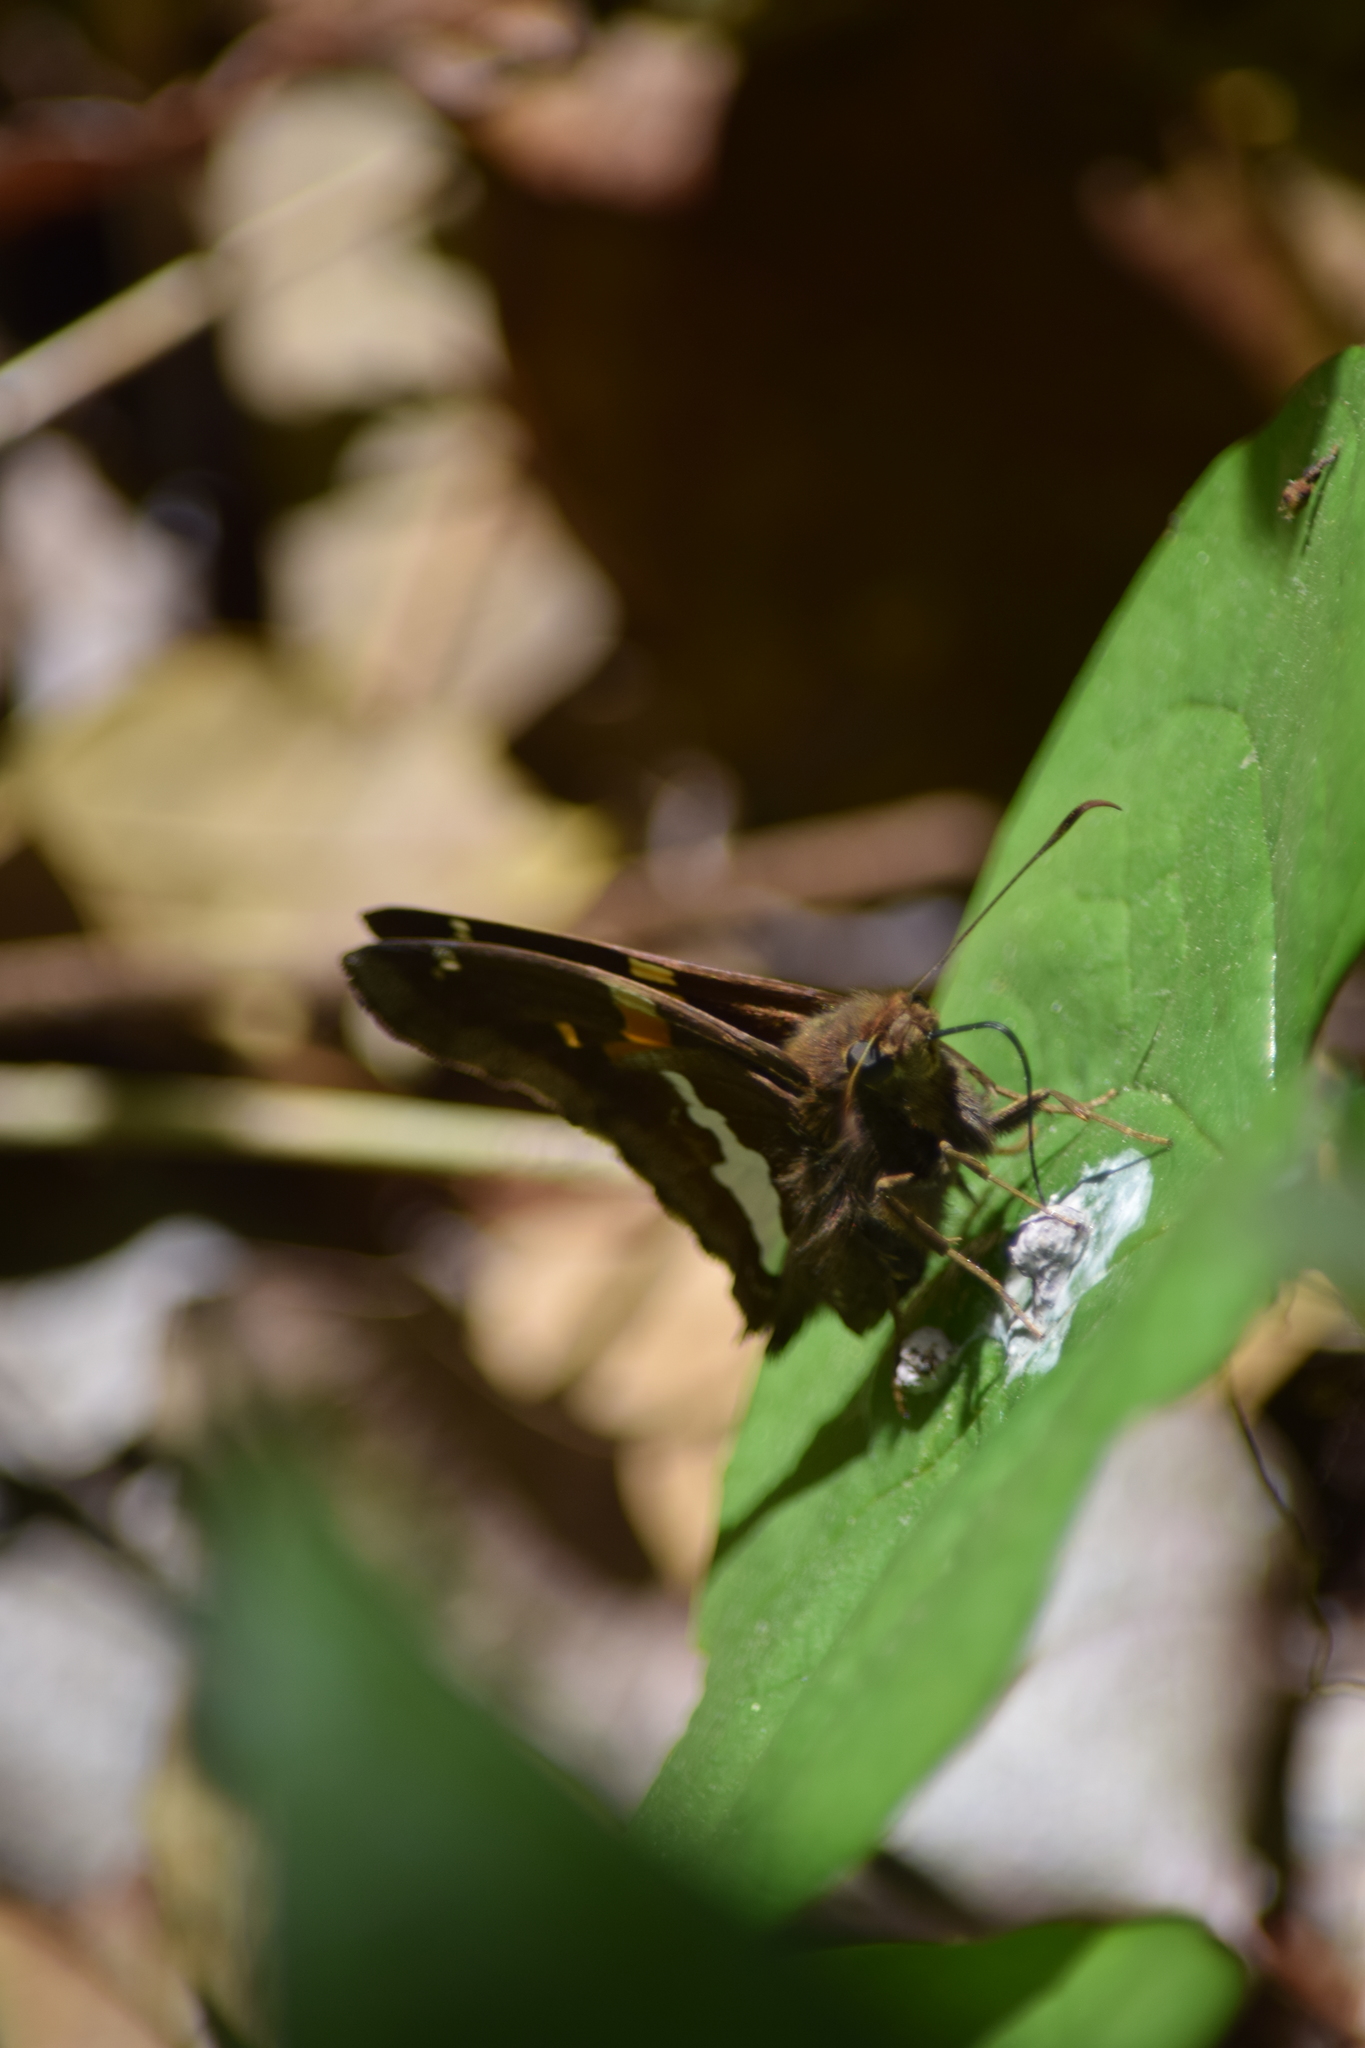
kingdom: Animalia
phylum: Arthropoda
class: Insecta
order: Lepidoptera
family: Hesperiidae
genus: Epargyreus
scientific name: Epargyreus clarus
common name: Silver-spotted skipper
